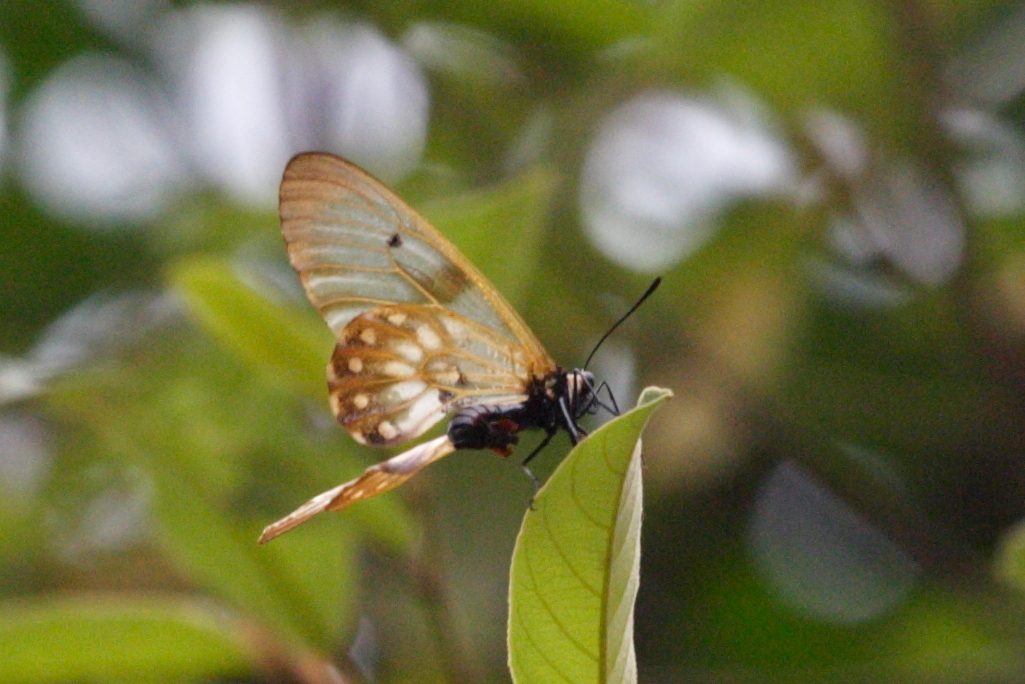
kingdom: Animalia
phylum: Arthropoda
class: Insecta
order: Lepidoptera
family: Papilionidae
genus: Cressida
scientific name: Cressida cressida
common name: Big greasy
